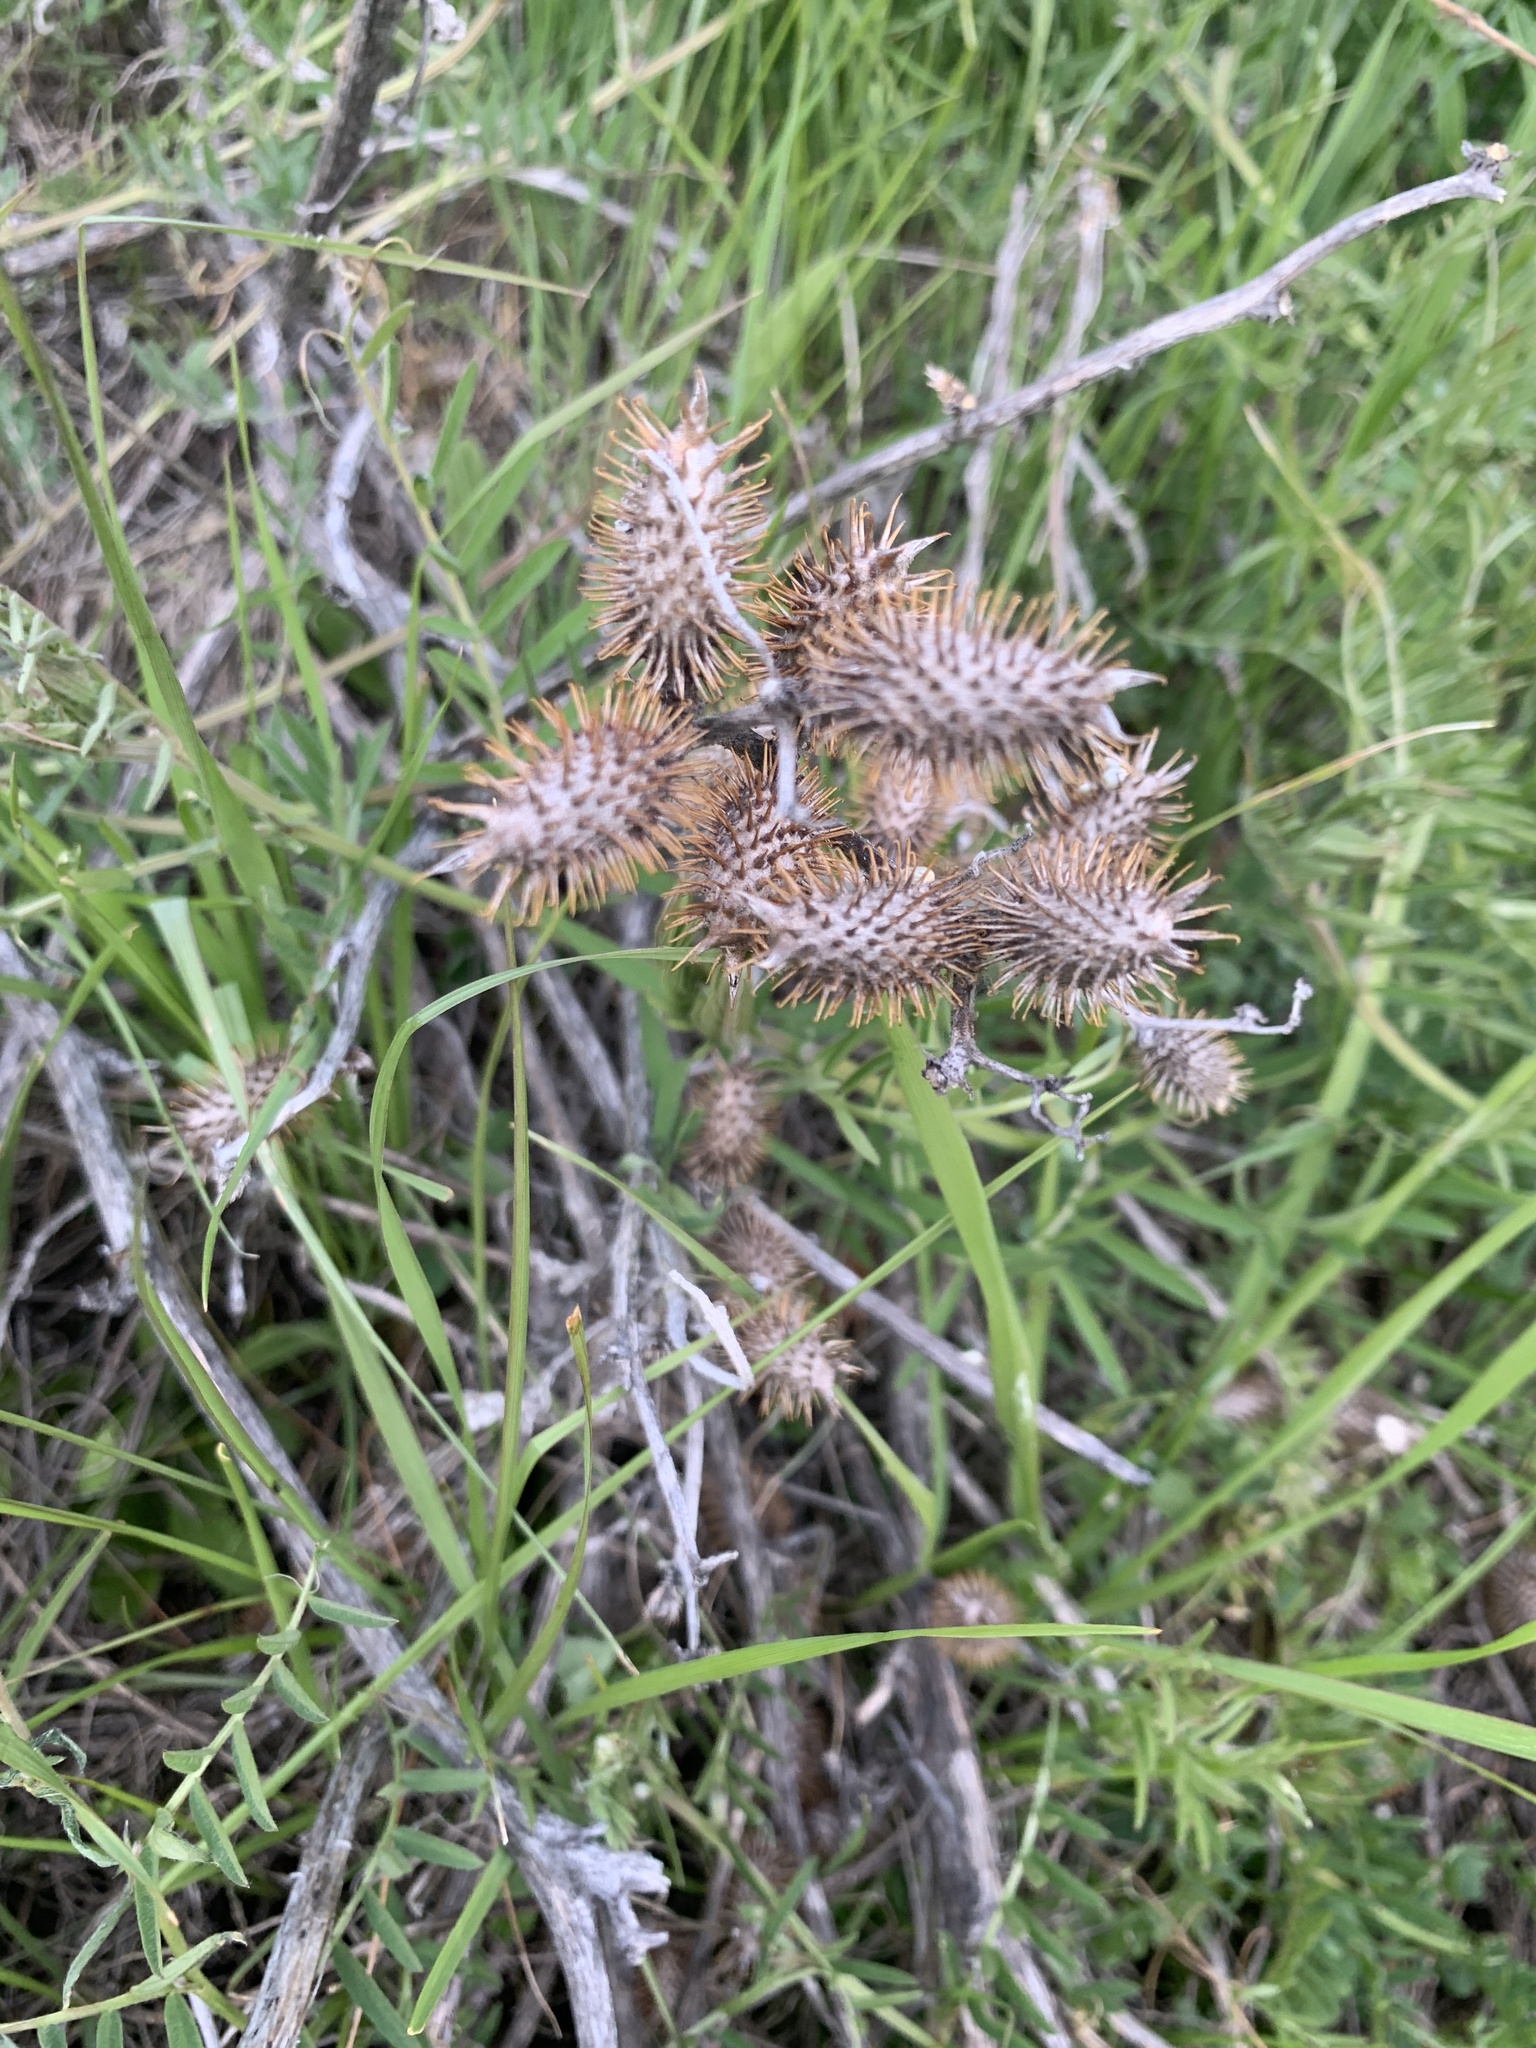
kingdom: Plantae
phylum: Tracheophyta
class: Magnoliopsida
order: Asterales
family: Asteraceae
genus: Xanthium
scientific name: Xanthium strumarium
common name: Rough cocklebur
